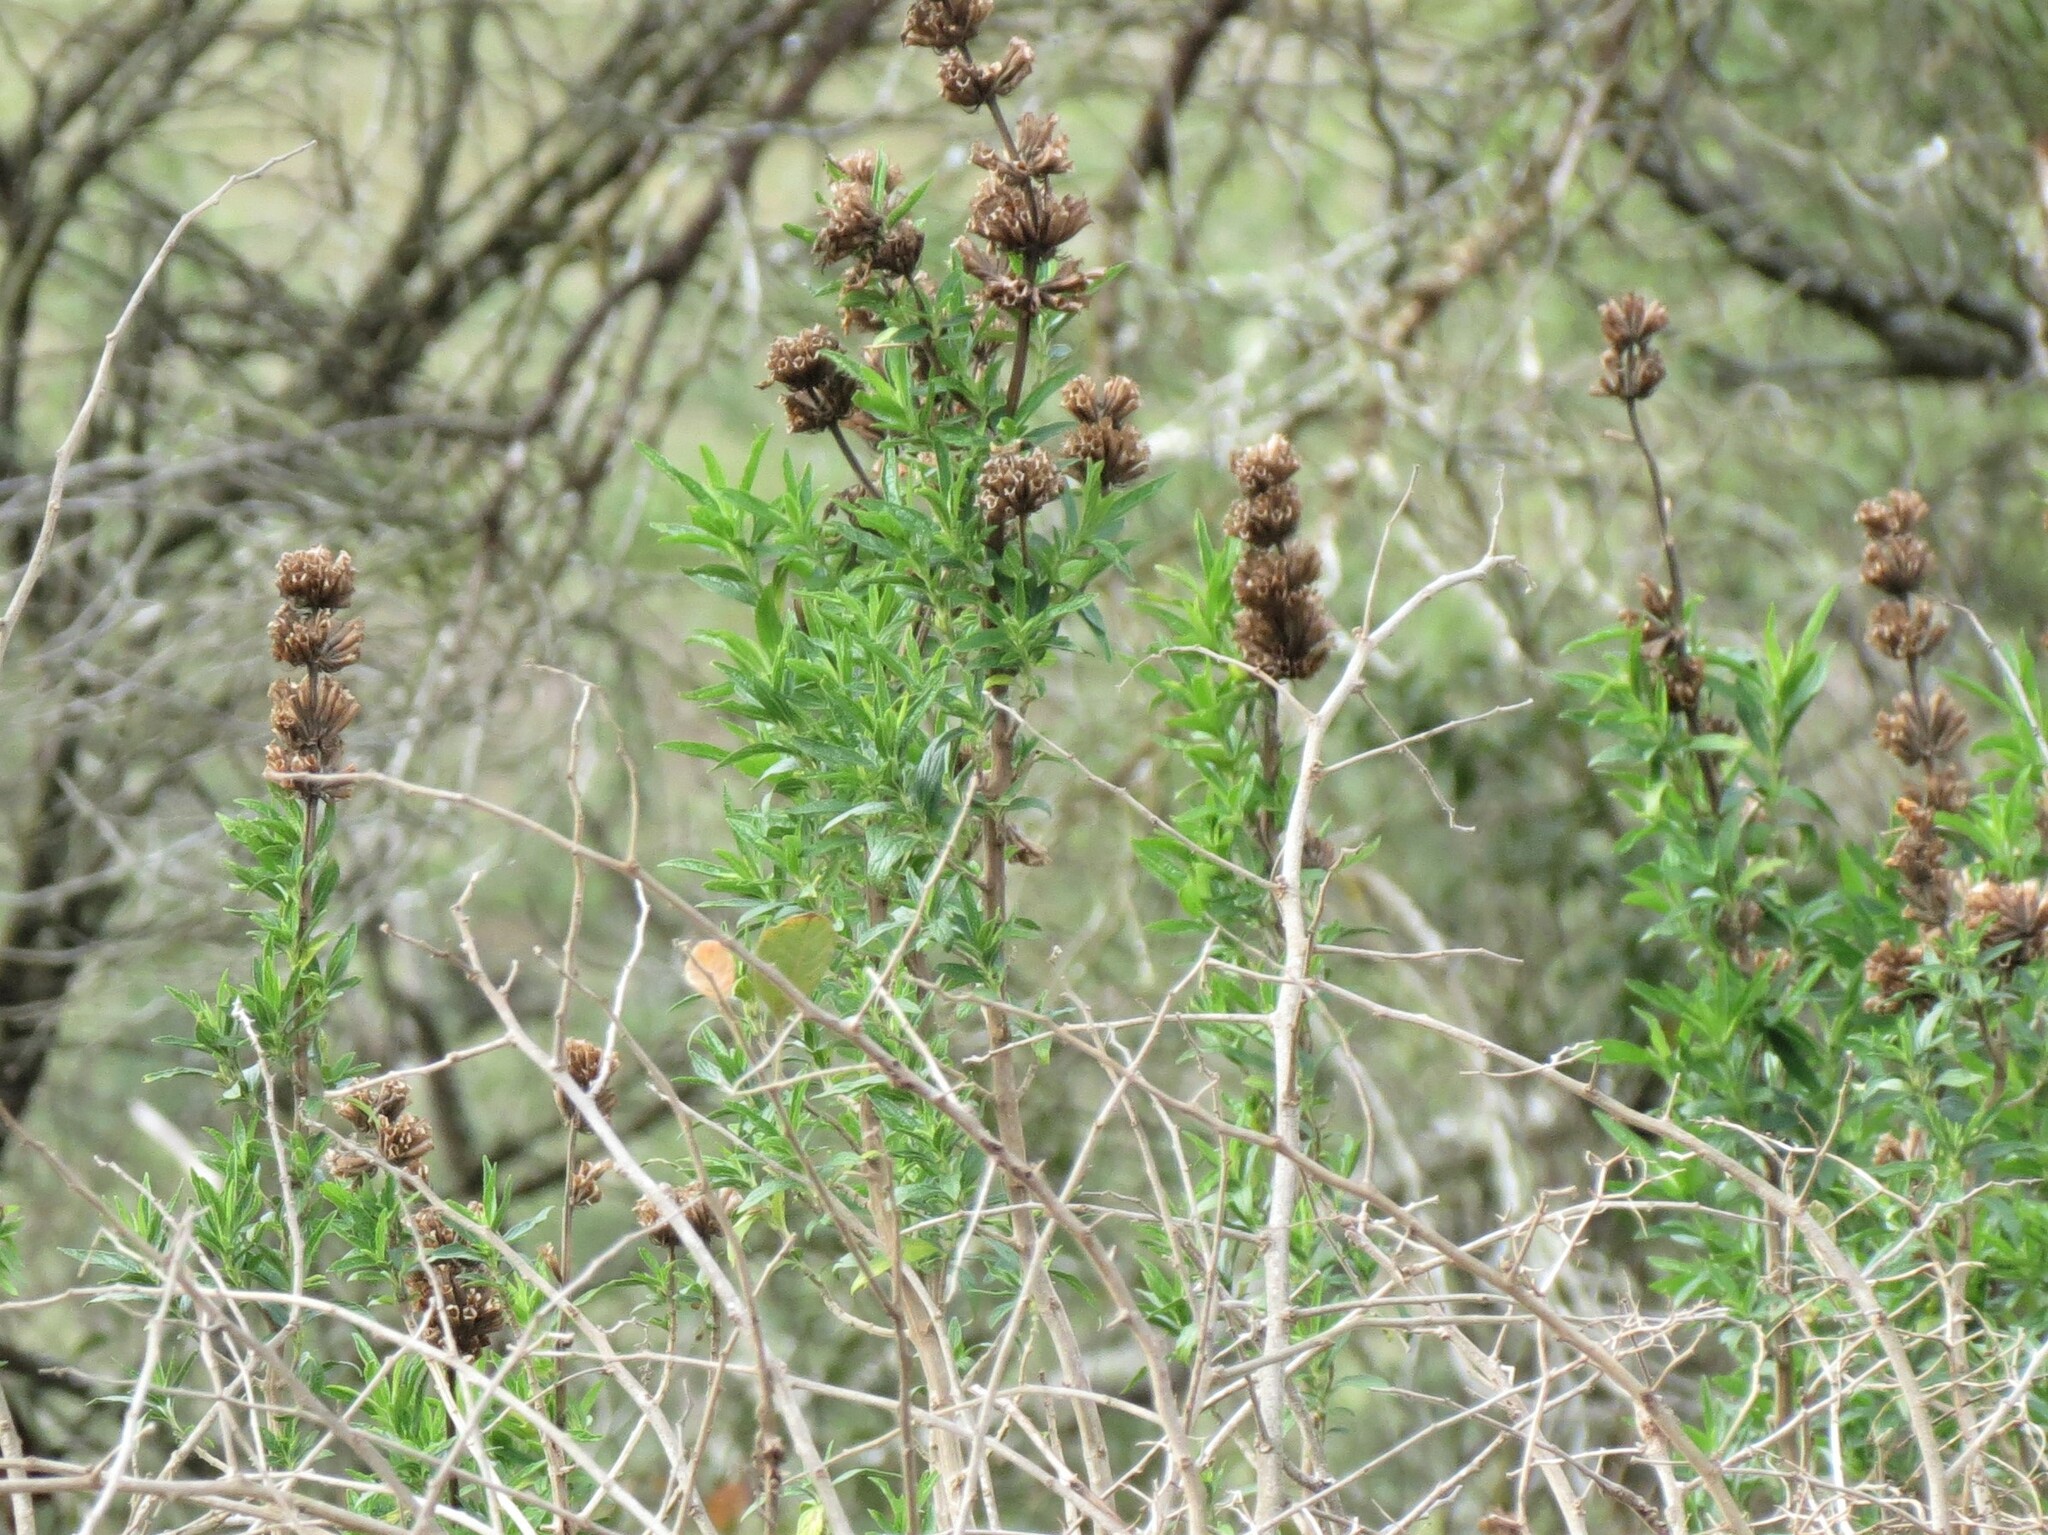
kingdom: Plantae
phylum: Tracheophyta
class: Magnoliopsida
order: Lamiales
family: Lamiaceae
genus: Leonotis
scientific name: Leonotis leonurus
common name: Lion's ear
